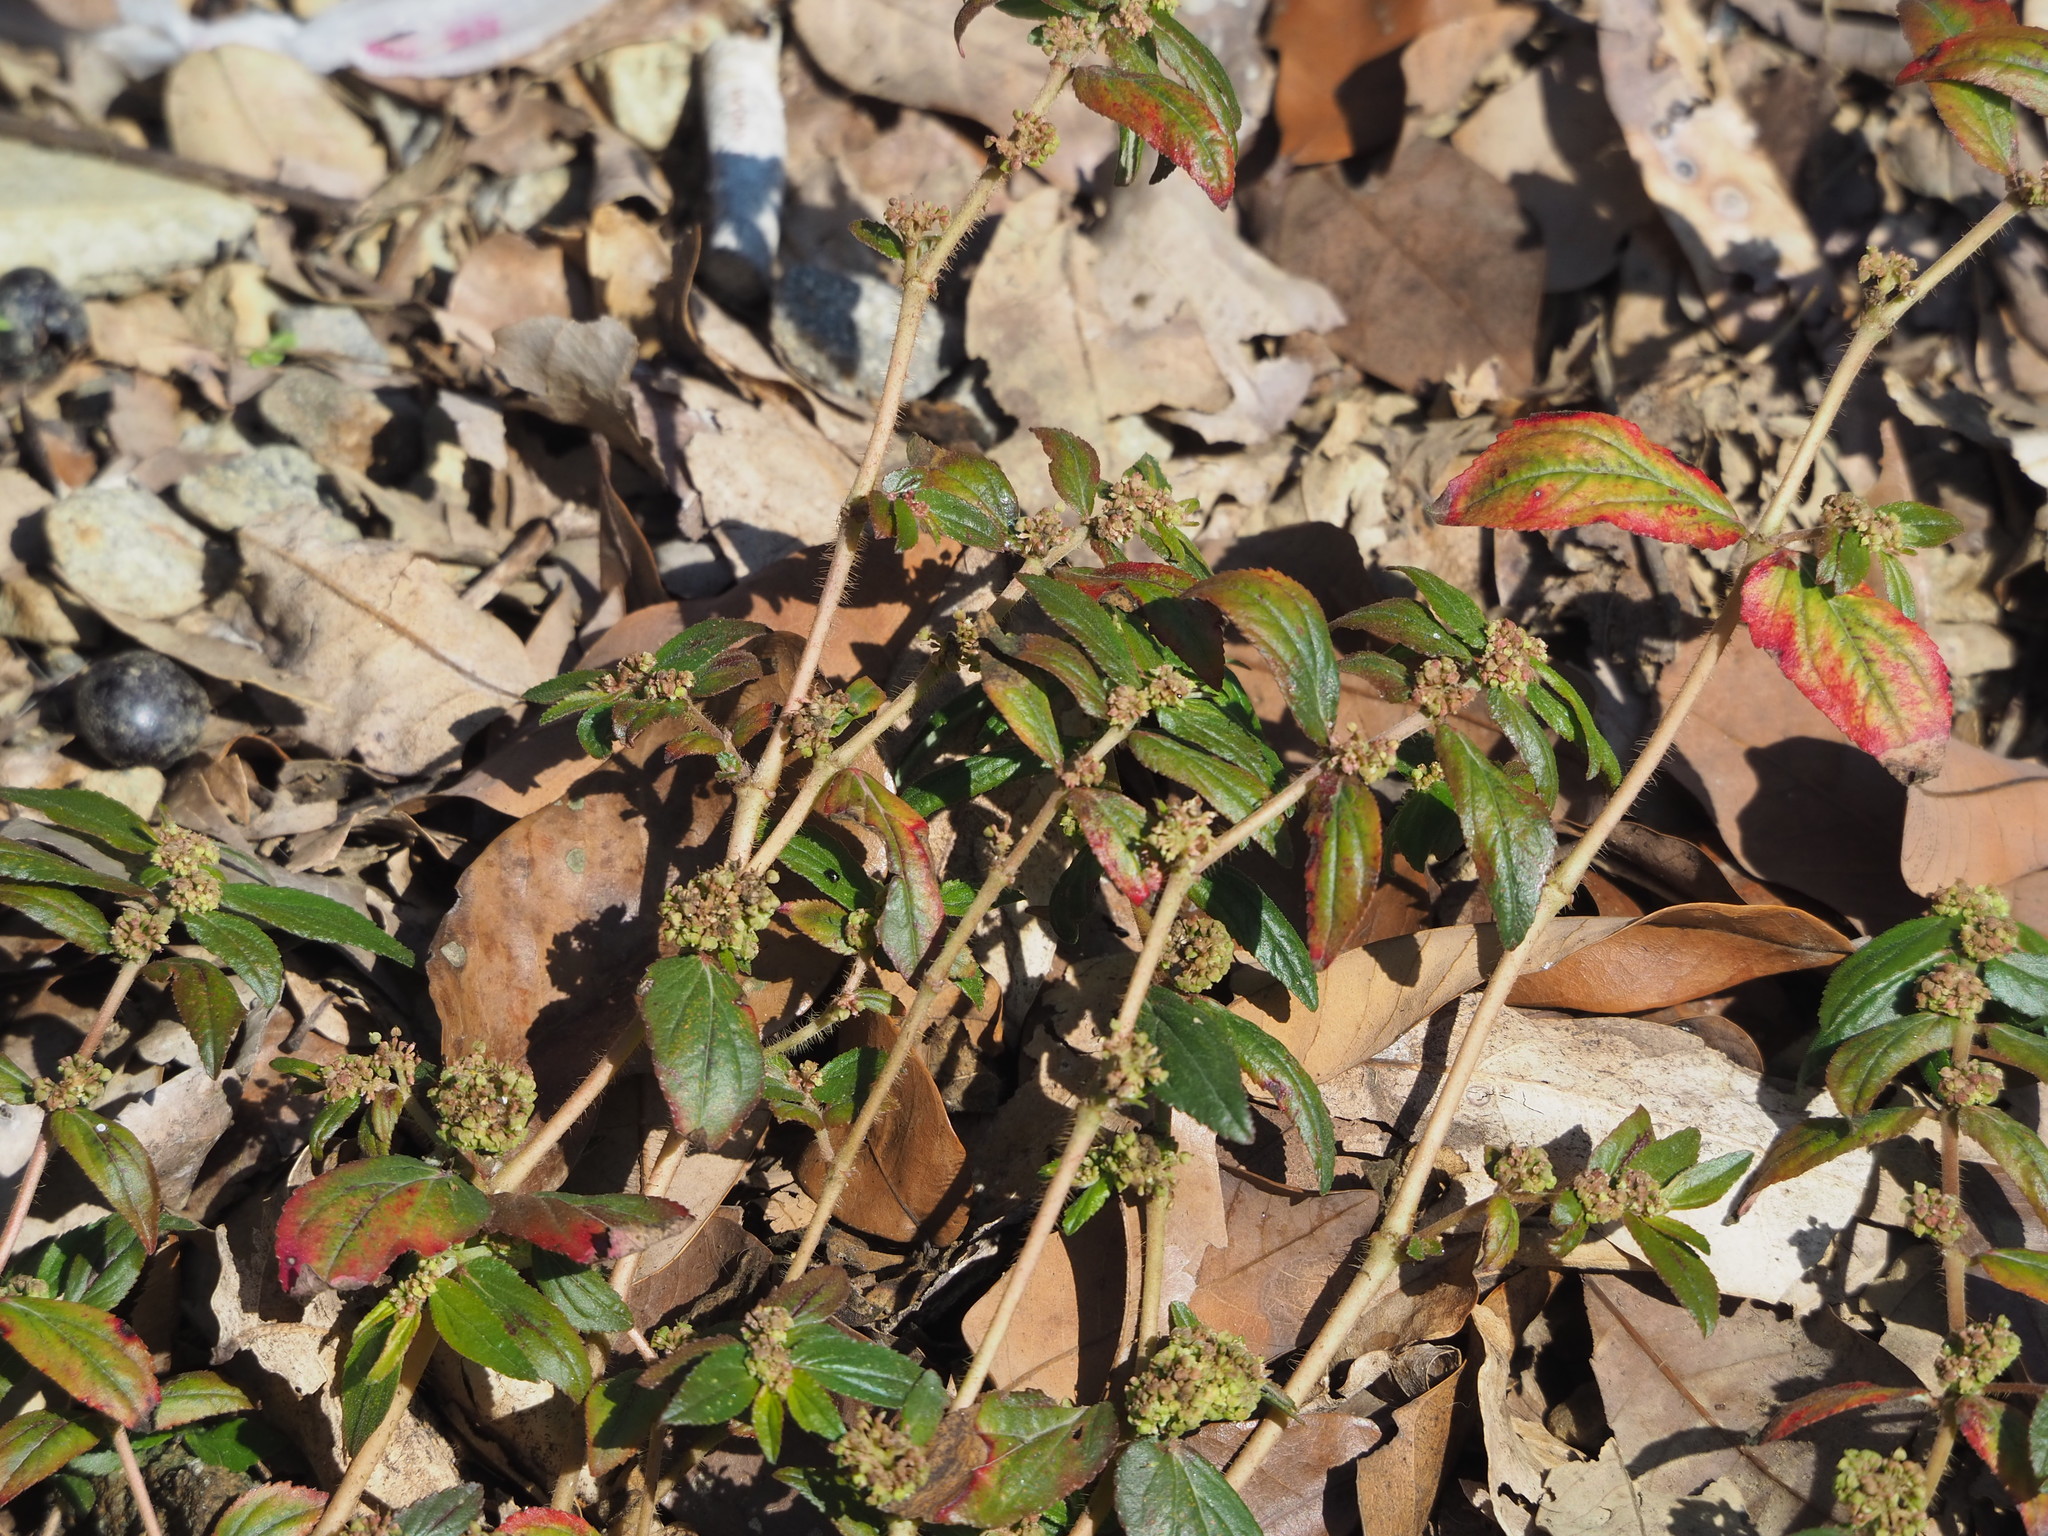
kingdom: Plantae
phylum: Tracheophyta
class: Magnoliopsida
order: Malpighiales
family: Euphorbiaceae
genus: Euphorbia
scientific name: Euphorbia hirta
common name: Pillpod sandmat
